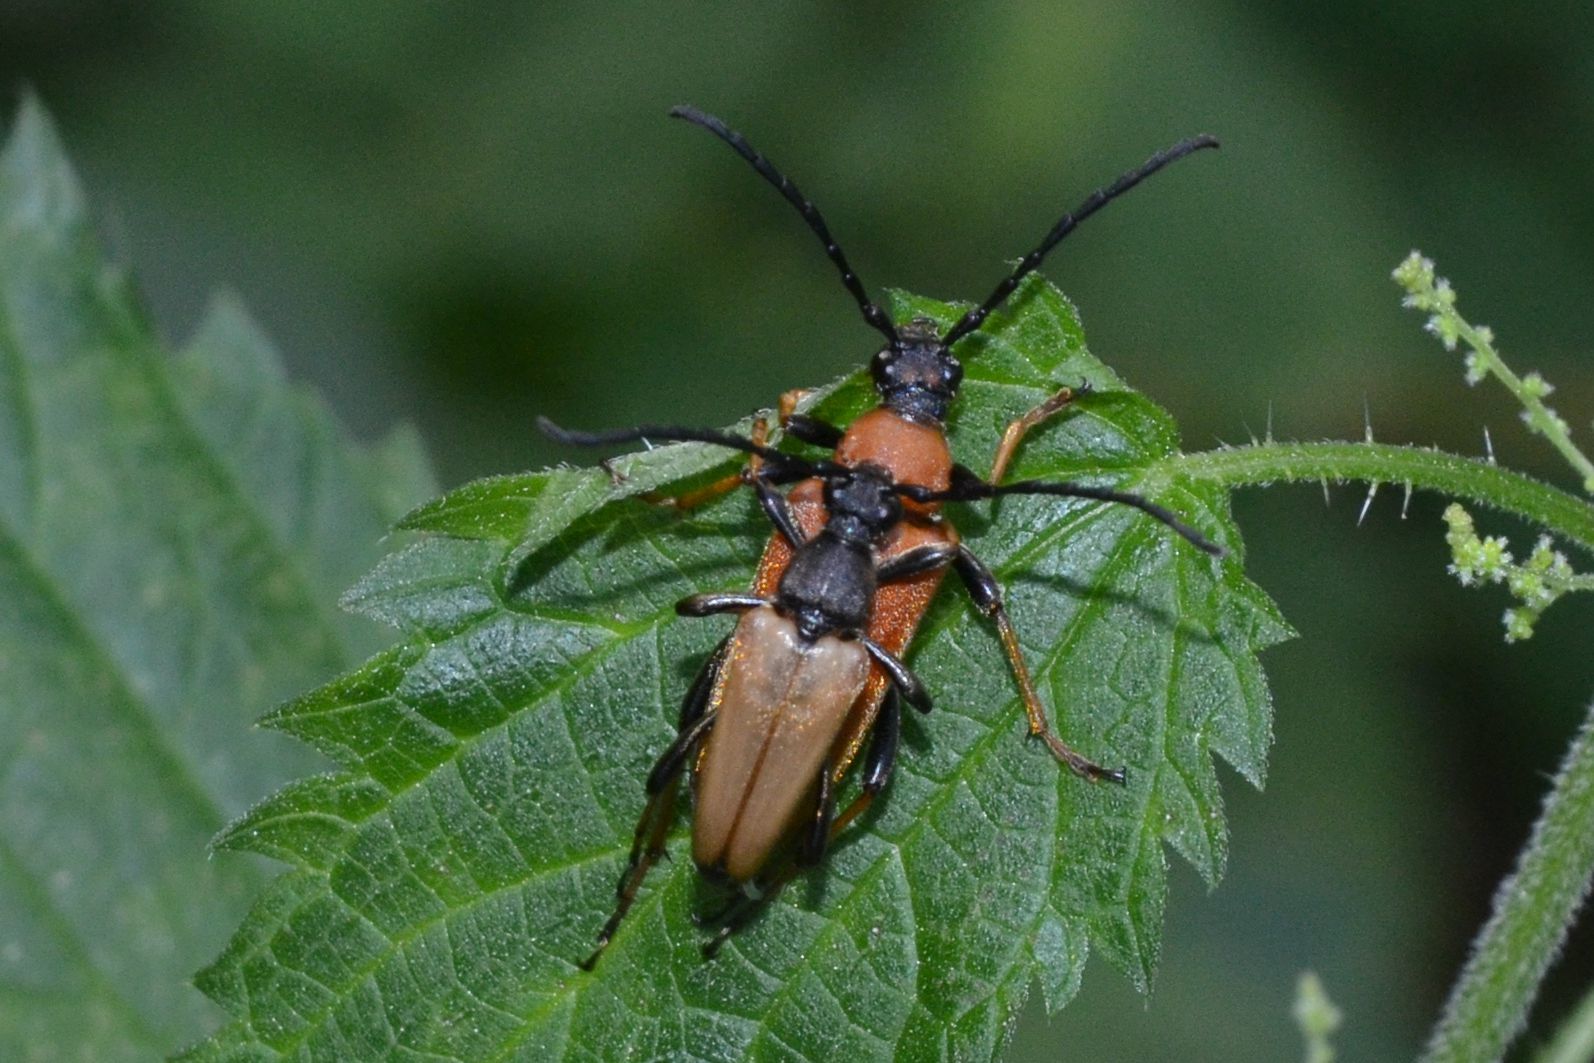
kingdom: Animalia
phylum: Arthropoda
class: Insecta
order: Coleoptera
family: Cerambycidae
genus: Stictoleptura
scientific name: Stictoleptura rubra
